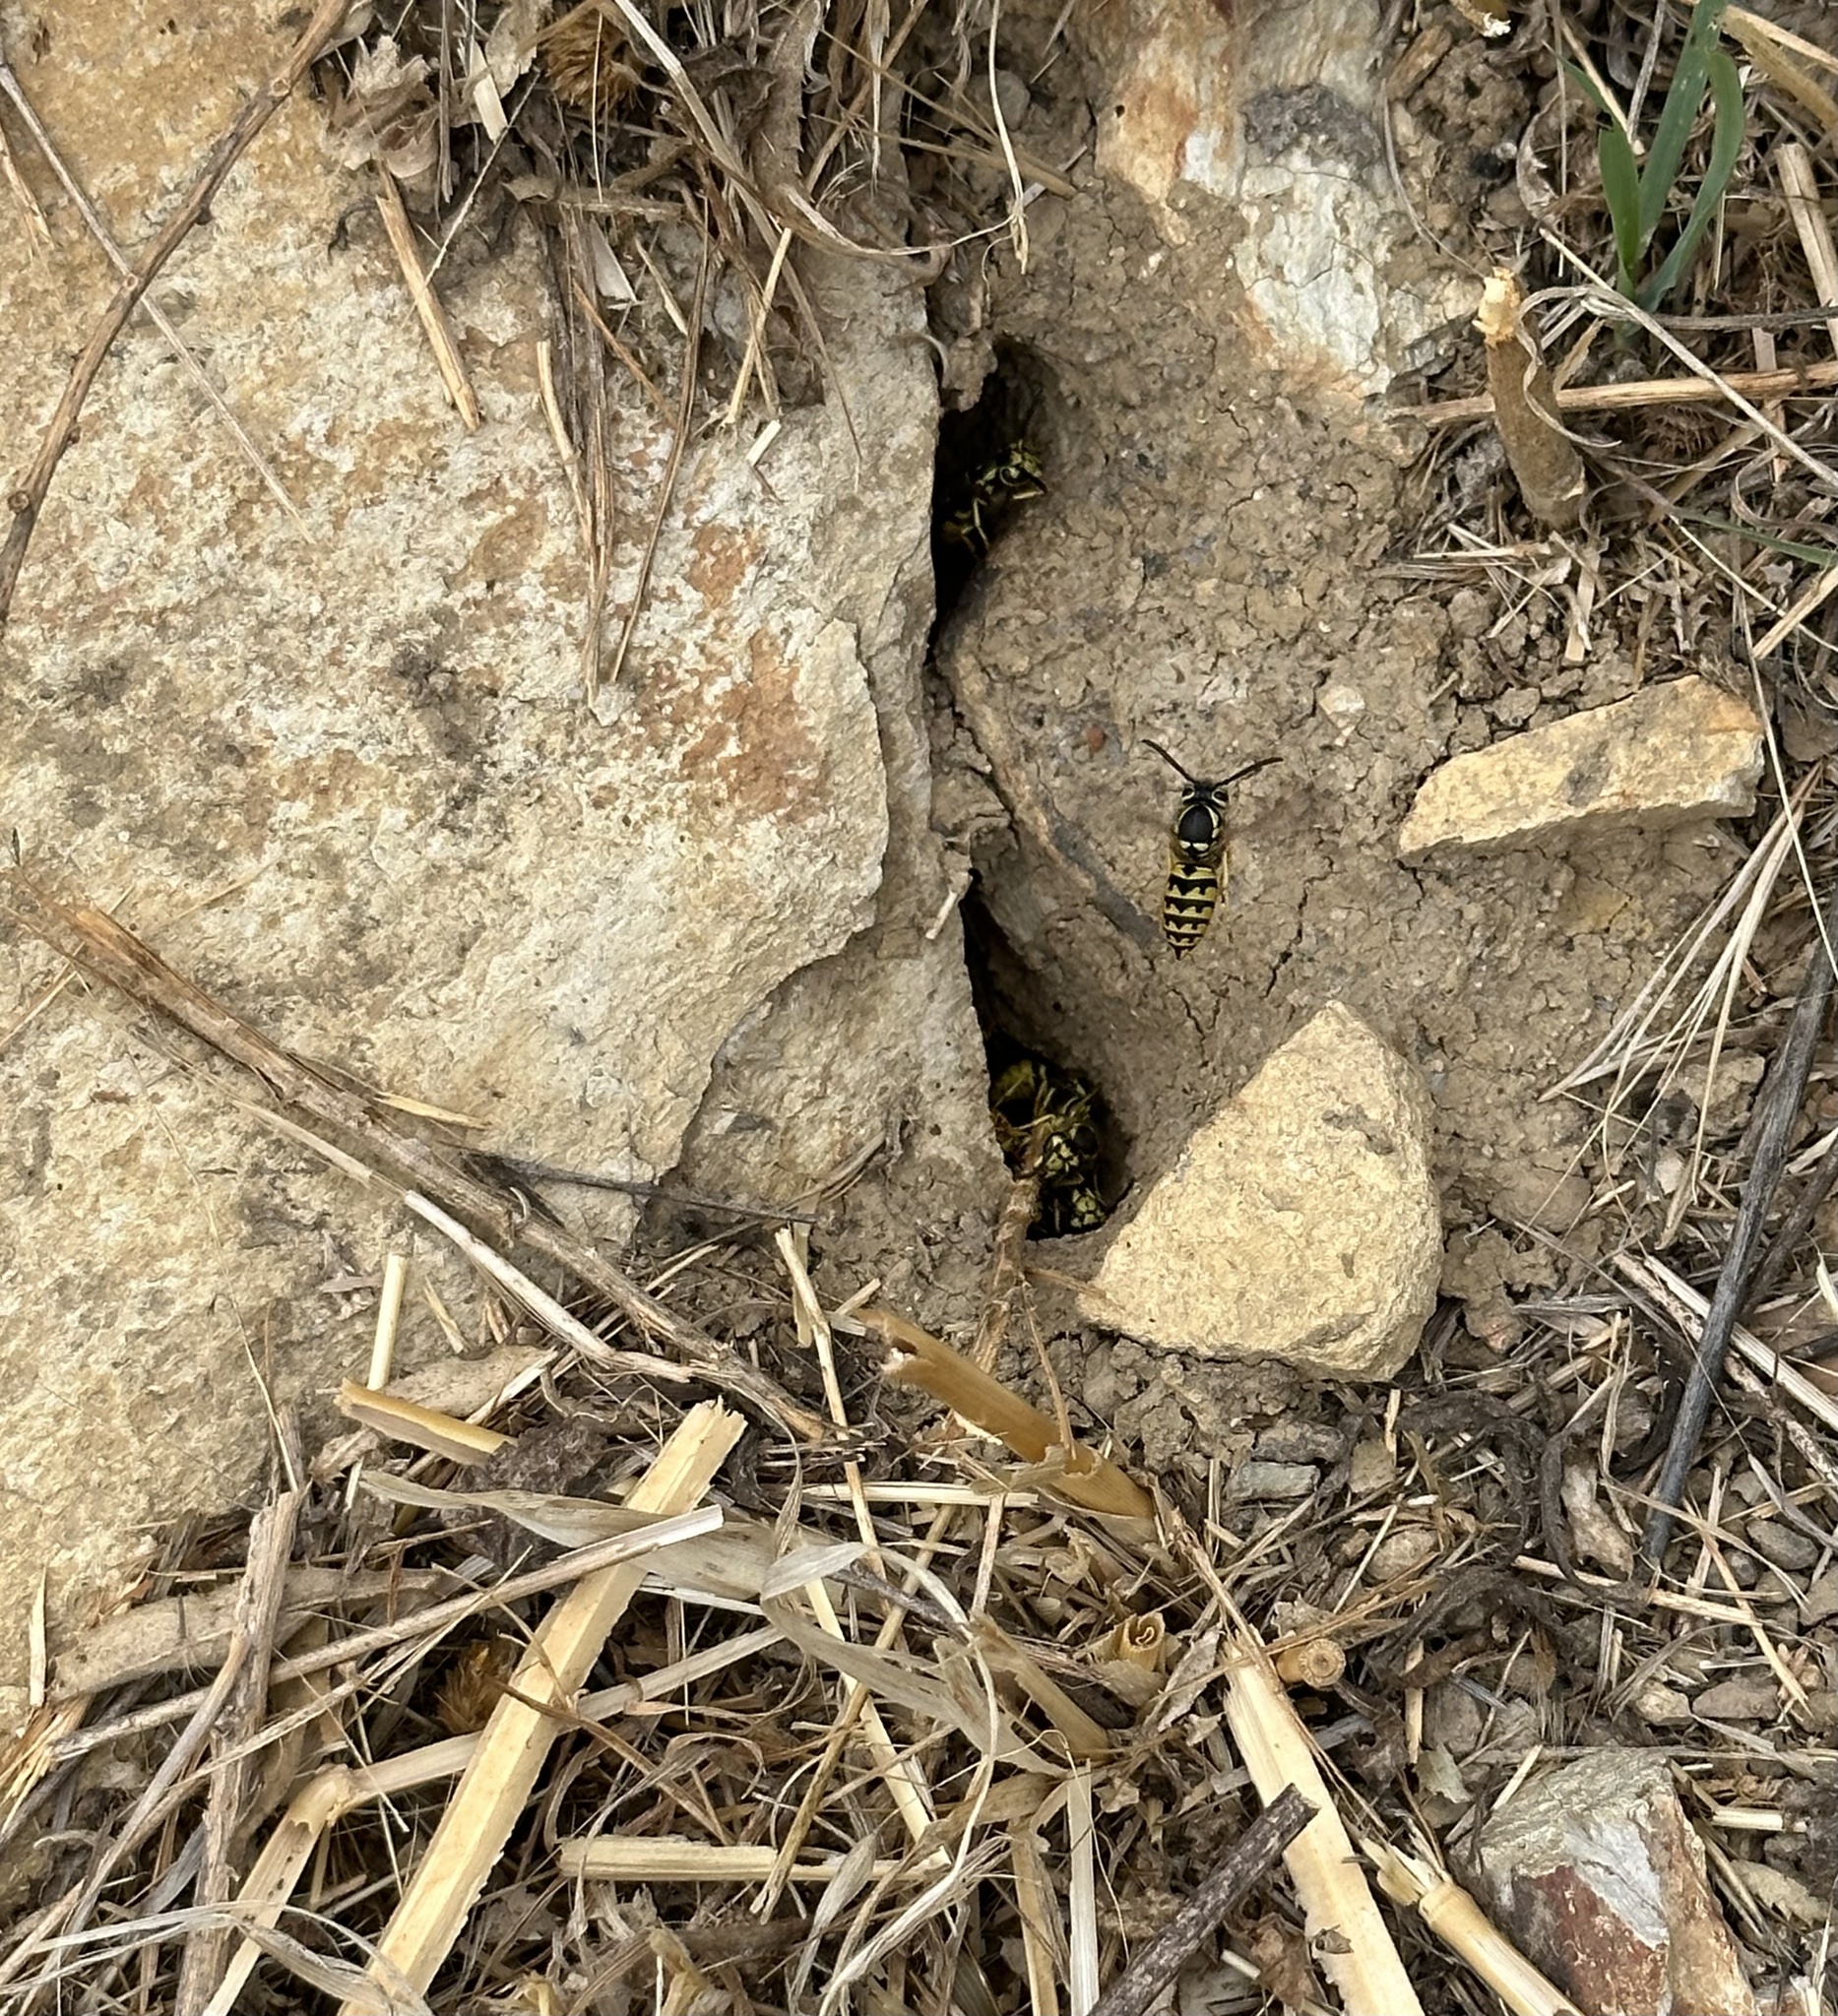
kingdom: Animalia
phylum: Arthropoda
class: Insecta
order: Hymenoptera
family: Vespidae
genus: Vespula
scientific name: Vespula pensylvanica
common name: Western yellowjacket
